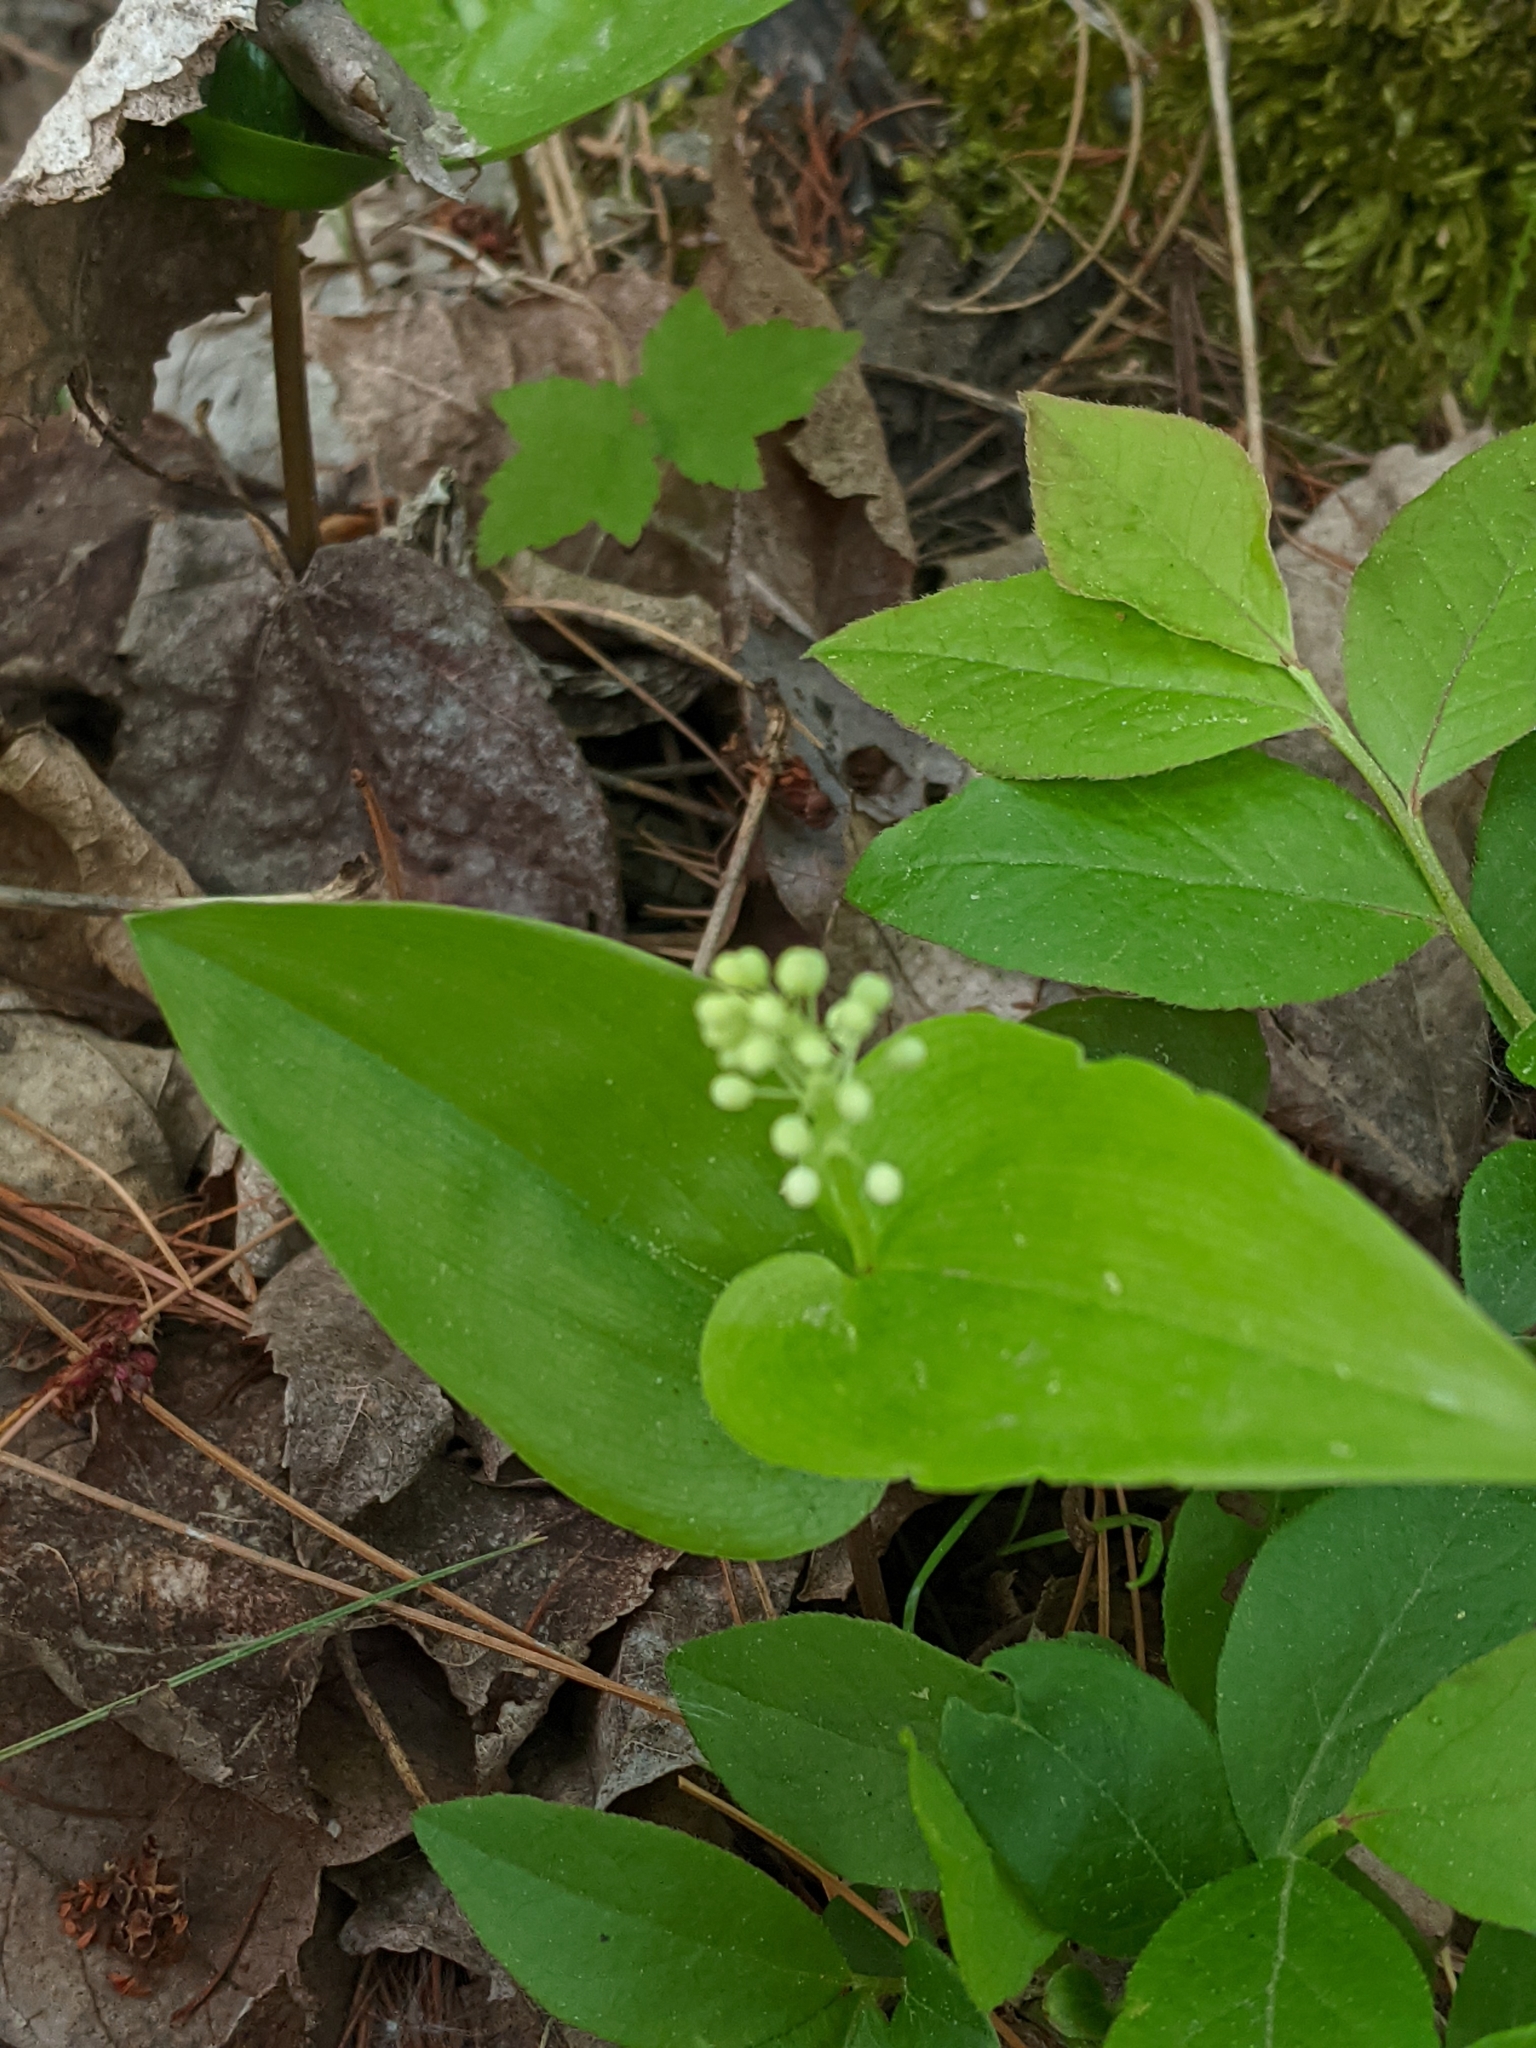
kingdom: Plantae
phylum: Tracheophyta
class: Liliopsida
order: Asparagales
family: Asparagaceae
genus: Maianthemum
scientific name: Maianthemum canadense
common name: False lily-of-the-valley
